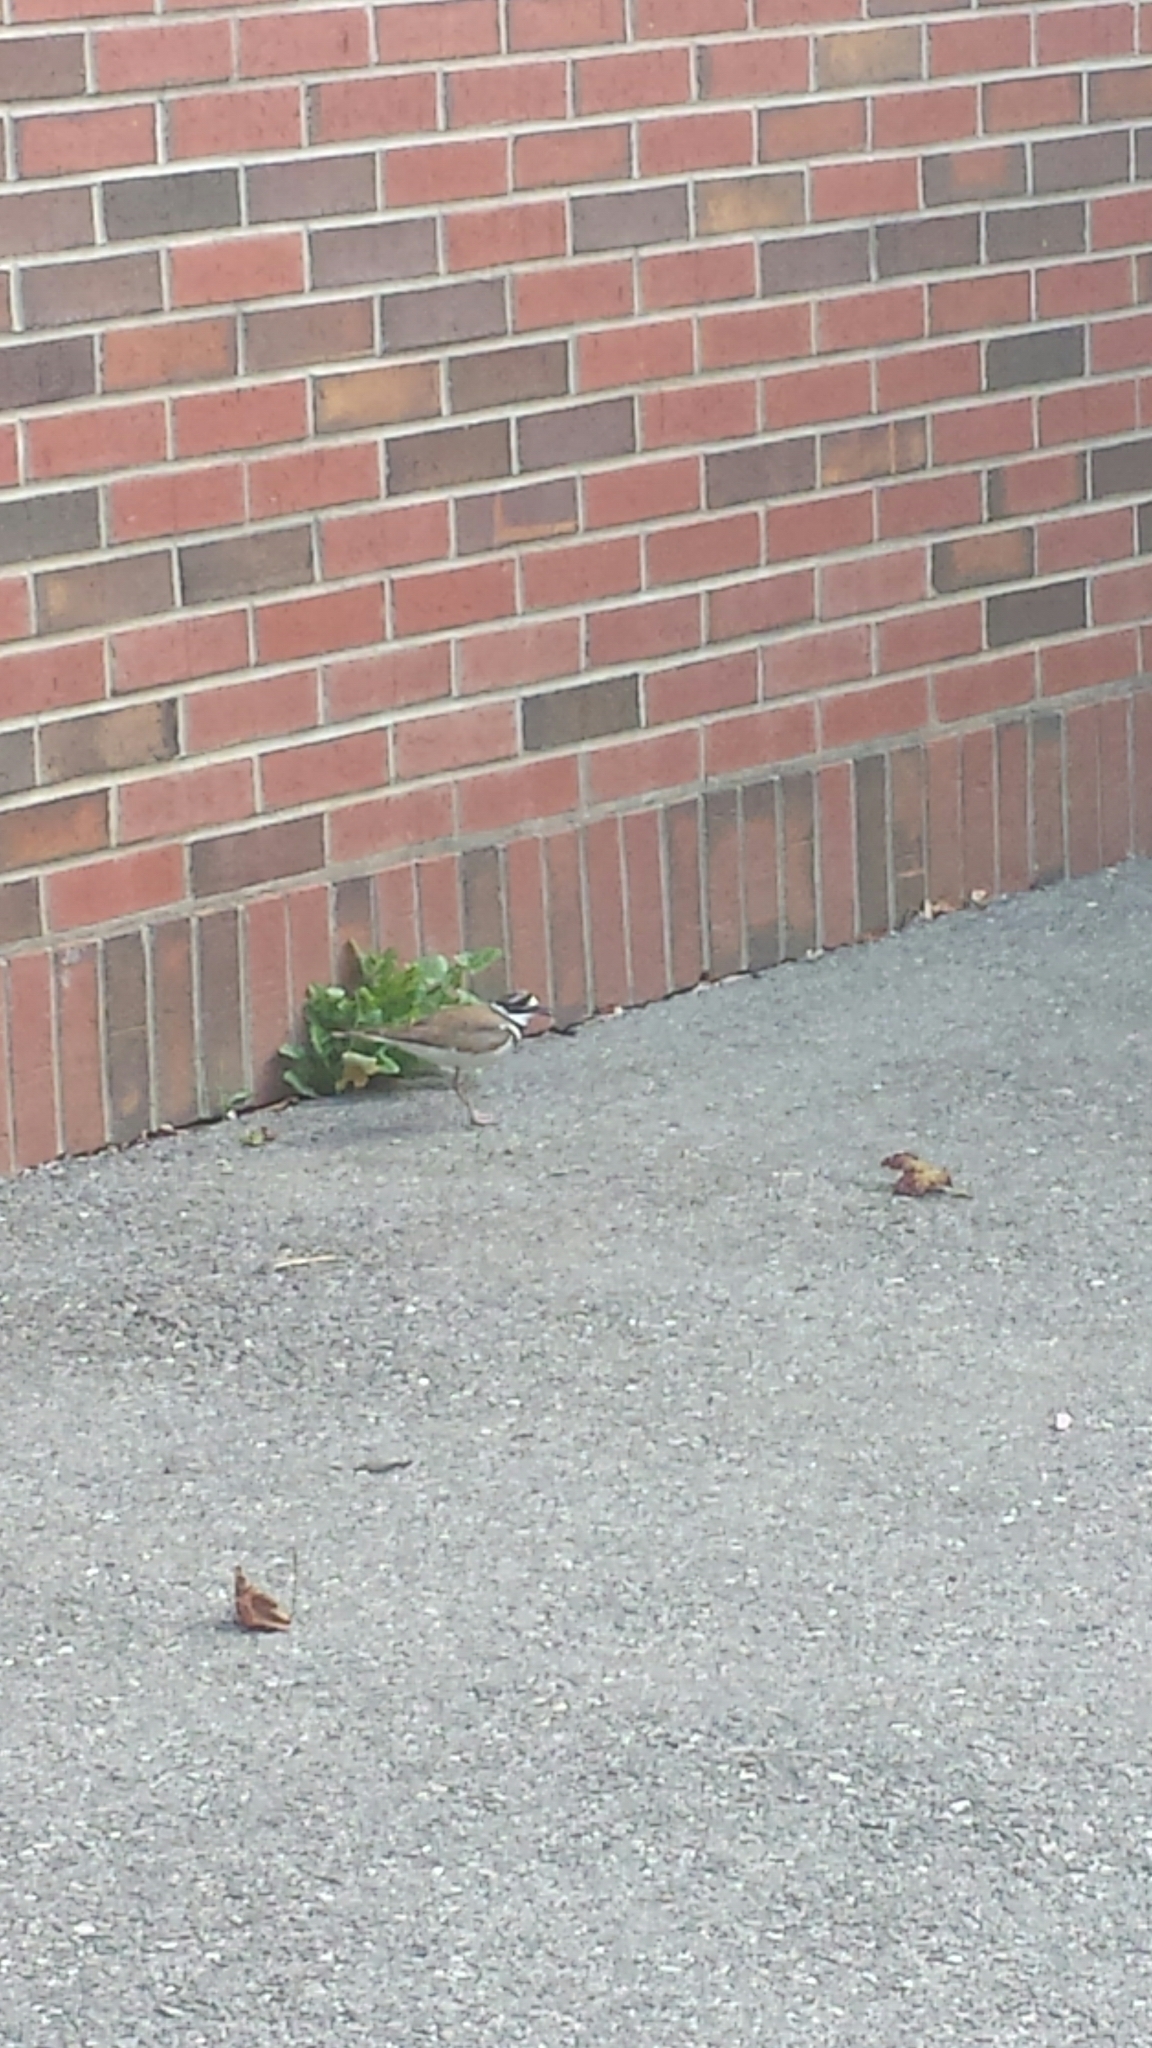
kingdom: Animalia
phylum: Chordata
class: Aves
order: Charadriiformes
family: Charadriidae
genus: Charadrius
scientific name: Charadrius vociferus
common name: Killdeer
